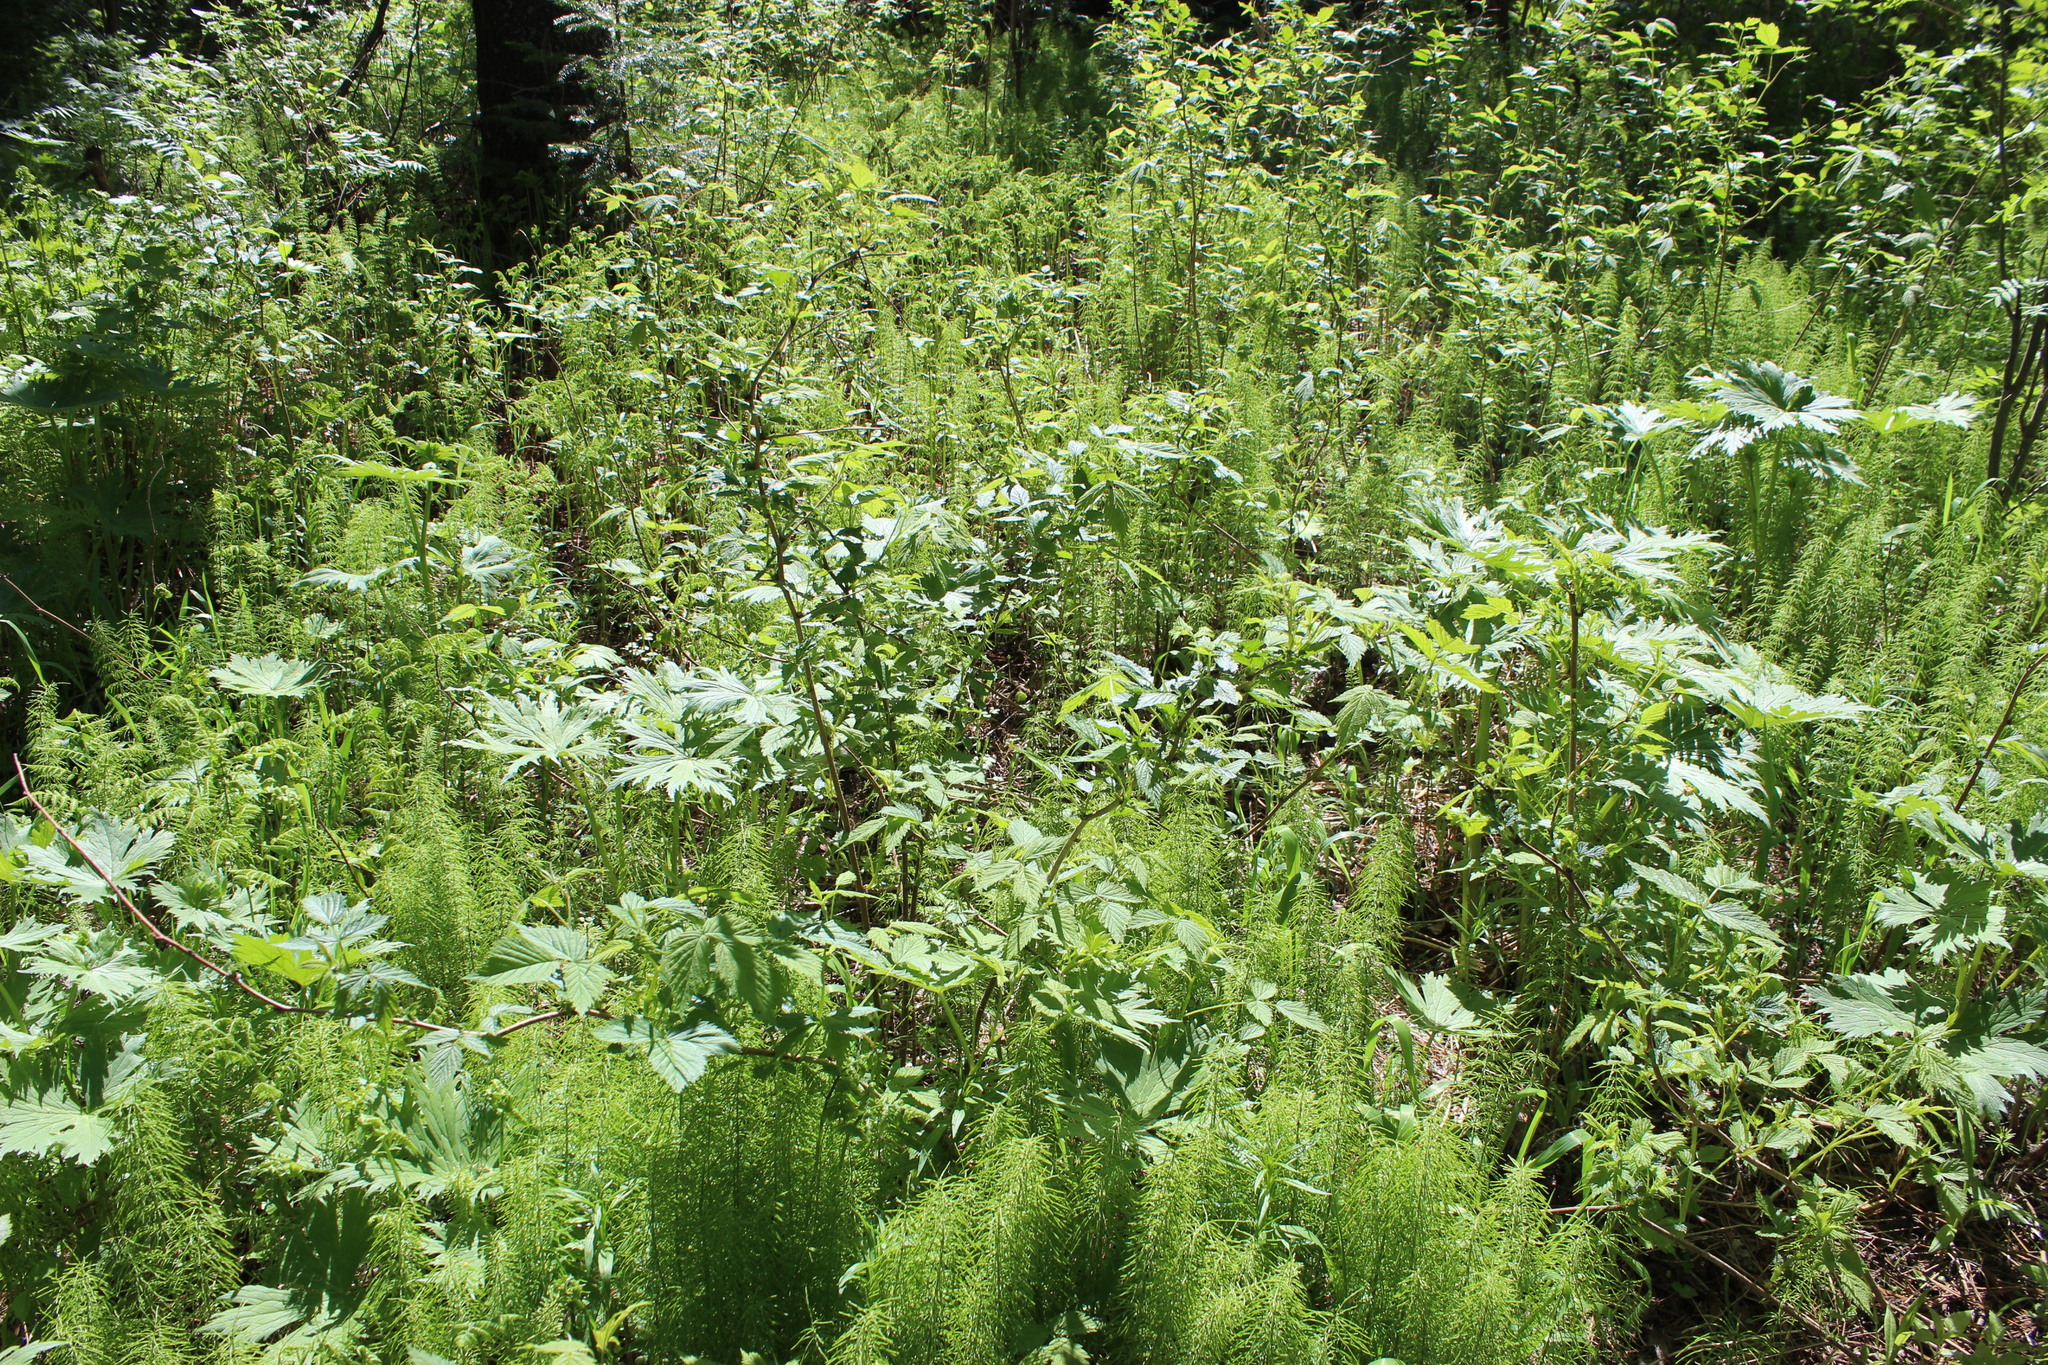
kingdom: Plantae
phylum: Tracheophyta
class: Magnoliopsida
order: Ranunculales
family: Ranunculaceae
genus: Aconitum
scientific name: Aconitum septentrionale
